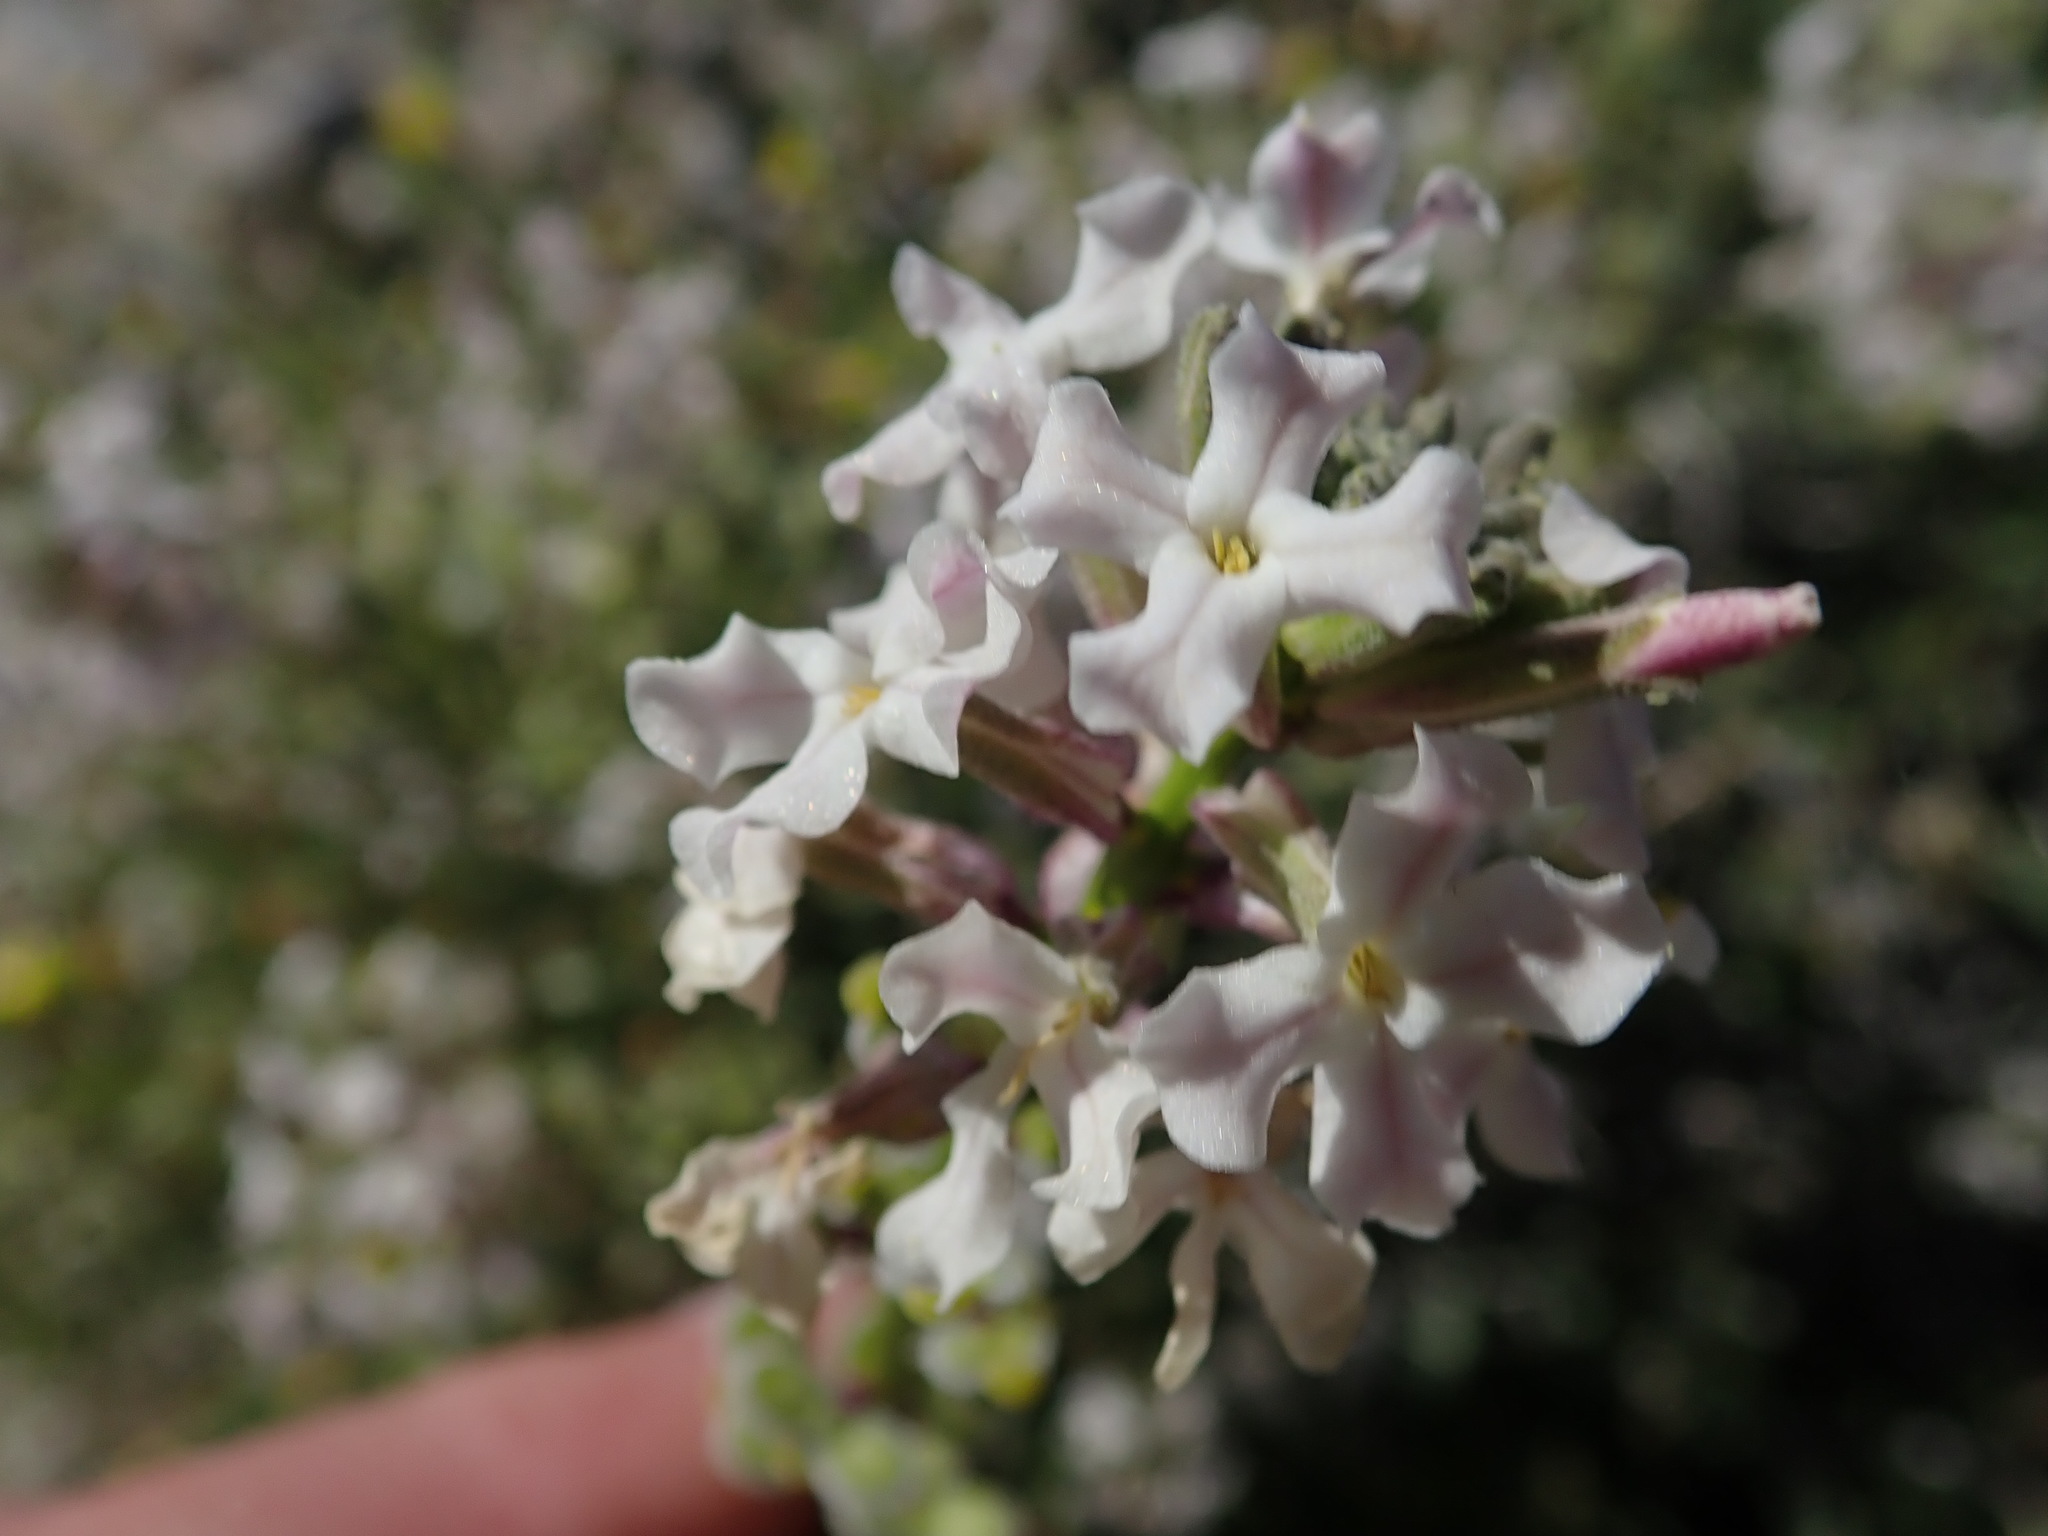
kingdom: Plantae
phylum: Tracheophyta
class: Magnoliopsida
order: Brassicales
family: Brassicaceae
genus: Dithyrea
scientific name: Dithyrea californica
